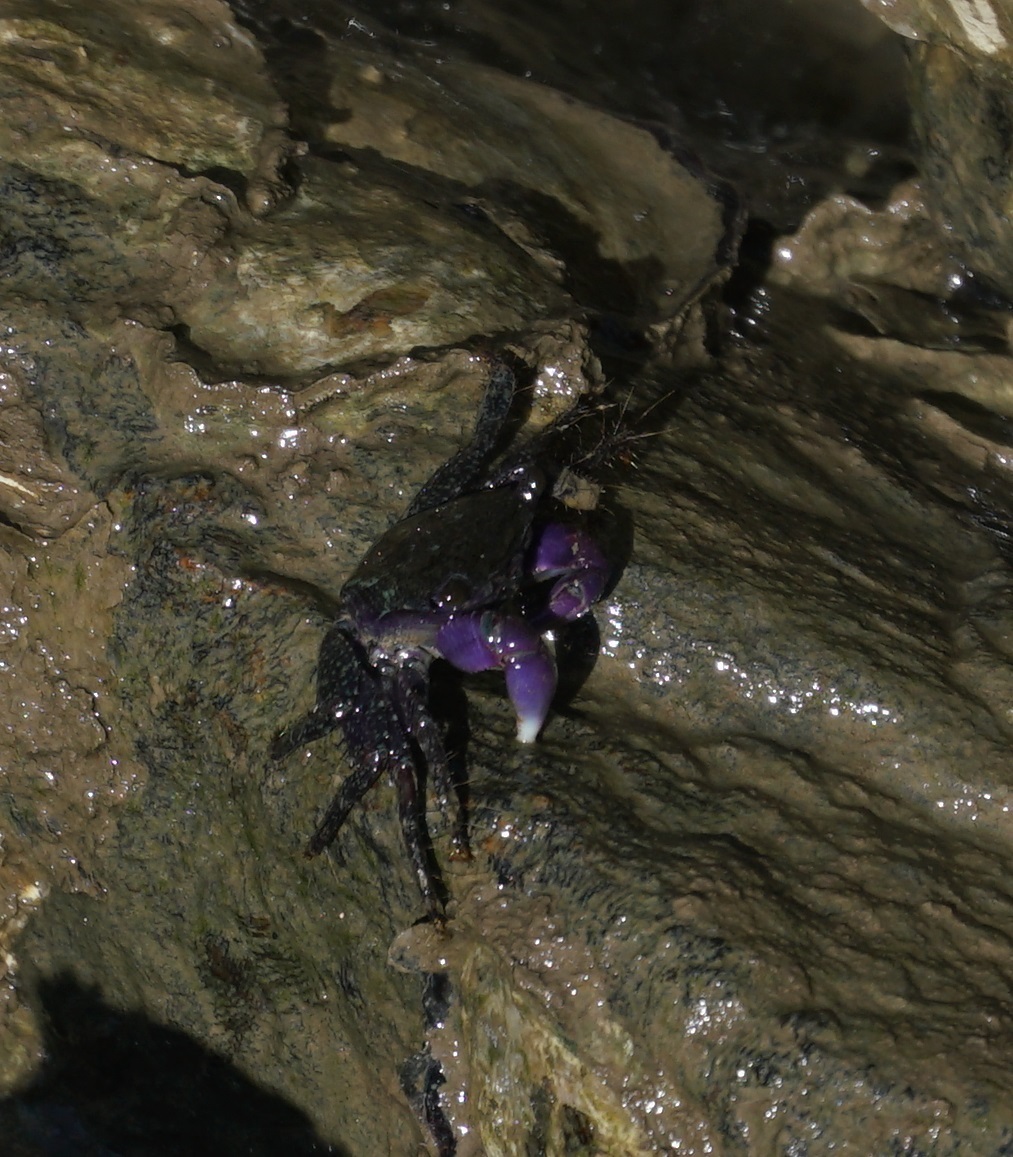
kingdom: Animalia
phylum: Arthropoda
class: Malacostraca
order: Decapoda
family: Grapsidae
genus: Metopograpsus
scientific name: Metopograpsus frontalis
